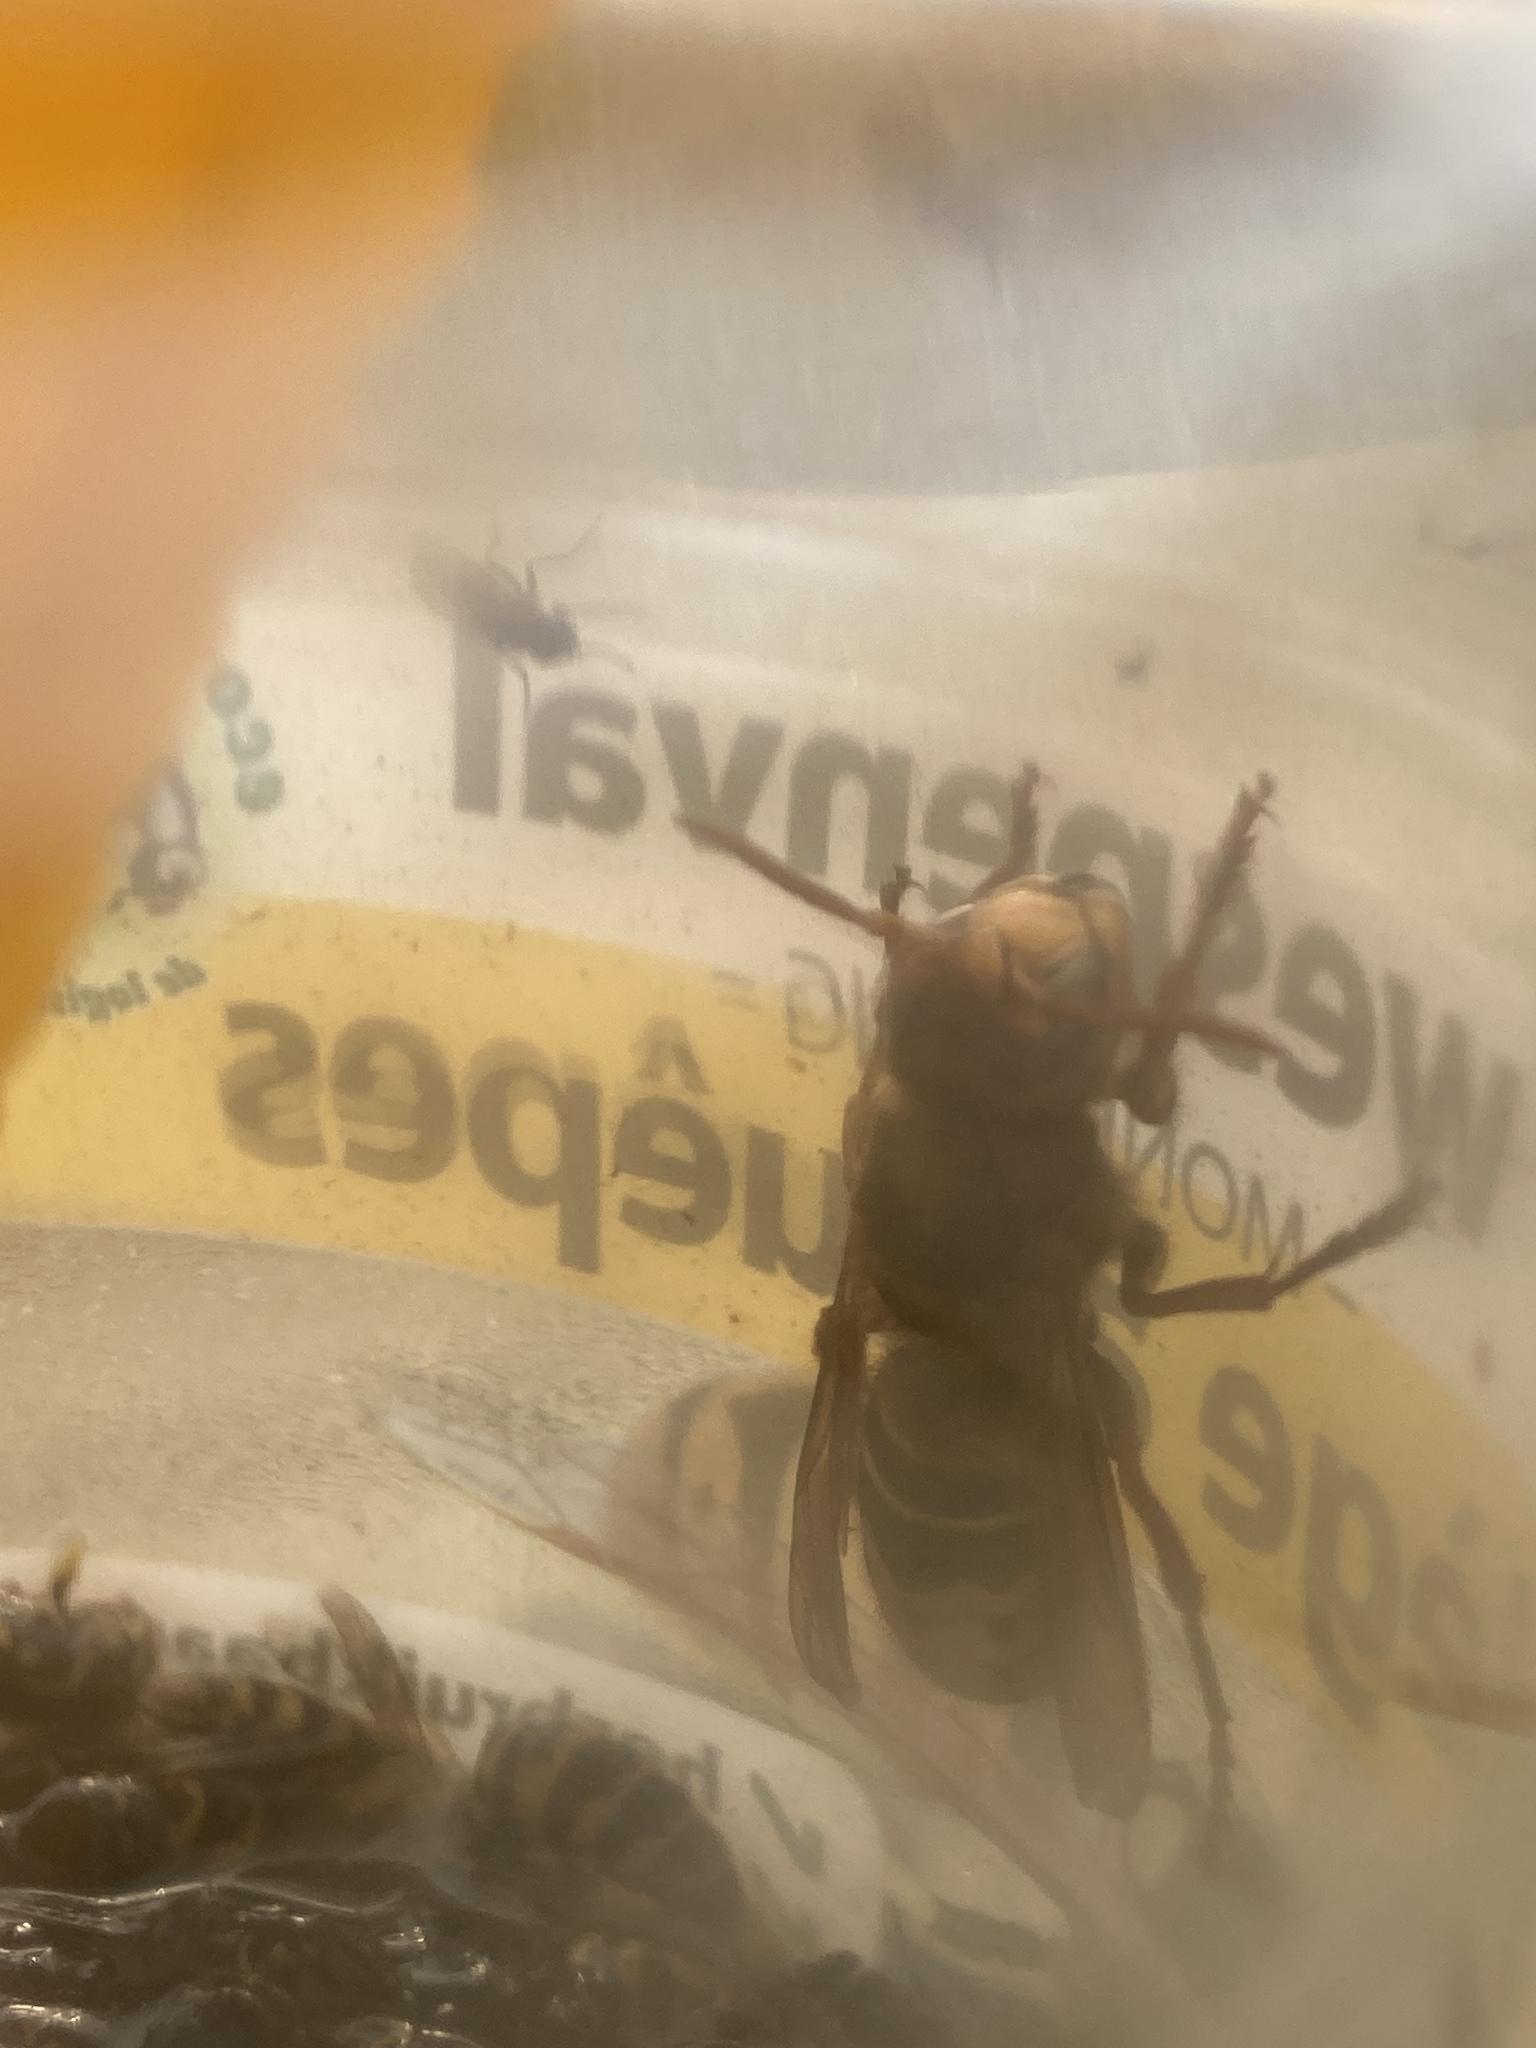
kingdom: Animalia
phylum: Arthropoda
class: Insecta
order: Hymenoptera
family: Vespidae
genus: Vespa
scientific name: Vespa crabro
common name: Hornet
